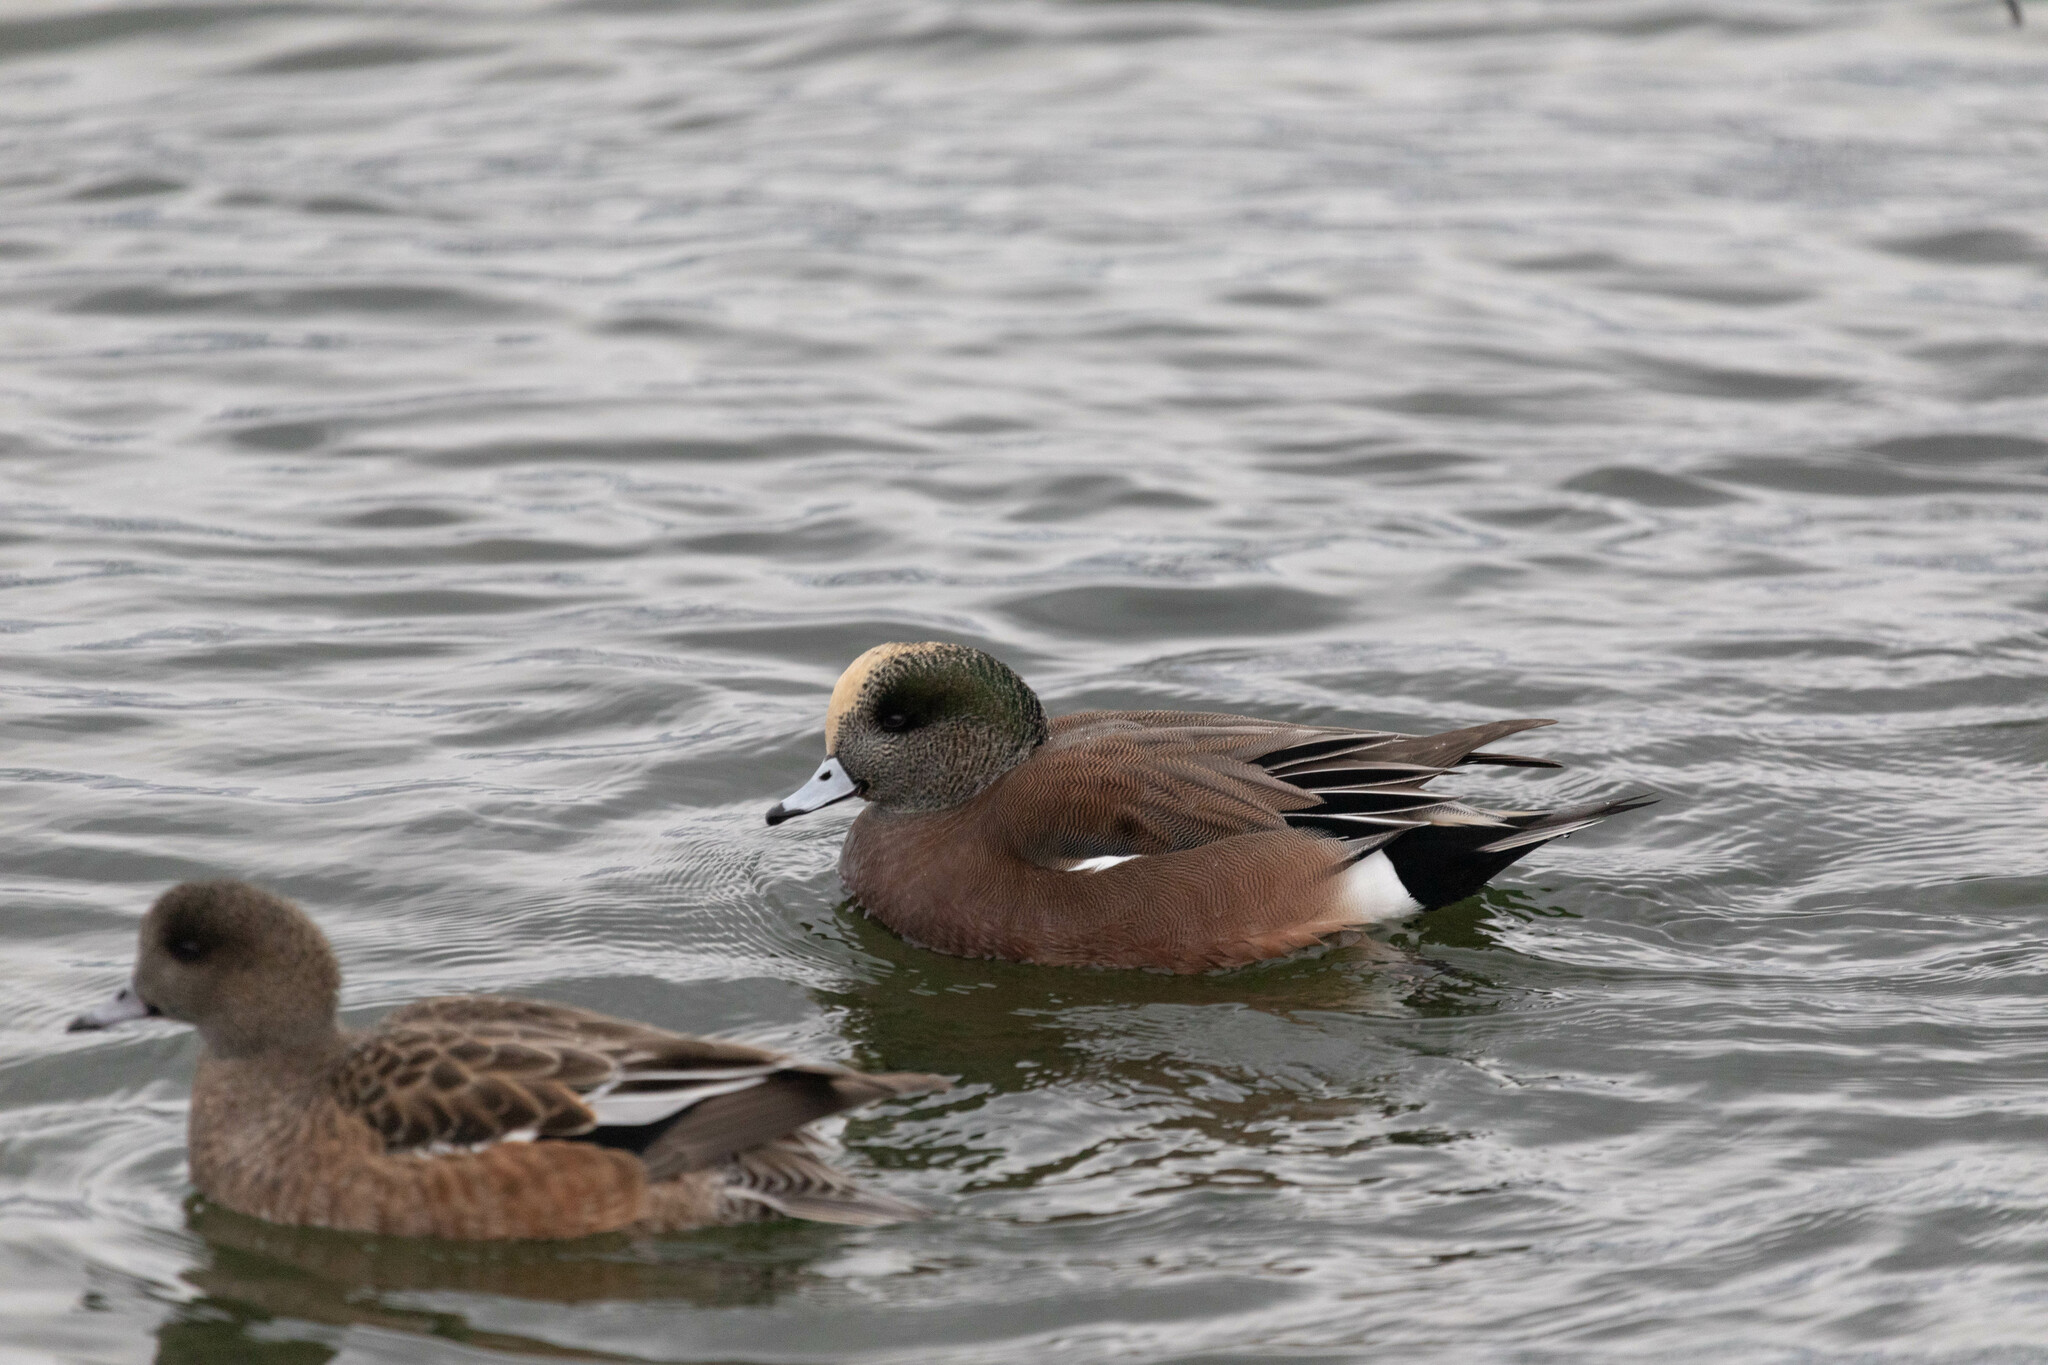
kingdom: Animalia
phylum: Chordata
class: Aves
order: Anseriformes
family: Anatidae
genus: Mareca
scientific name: Mareca americana
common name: American wigeon
